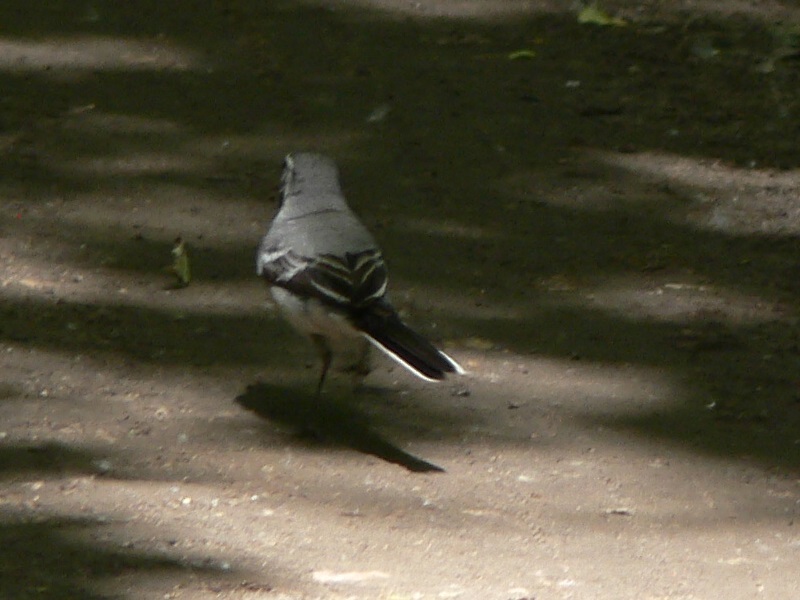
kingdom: Animalia
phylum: Chordata
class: Aves
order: Passeriformes
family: Motacillidae
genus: Motacilla
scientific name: Motacilla alba
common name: White wagtail
